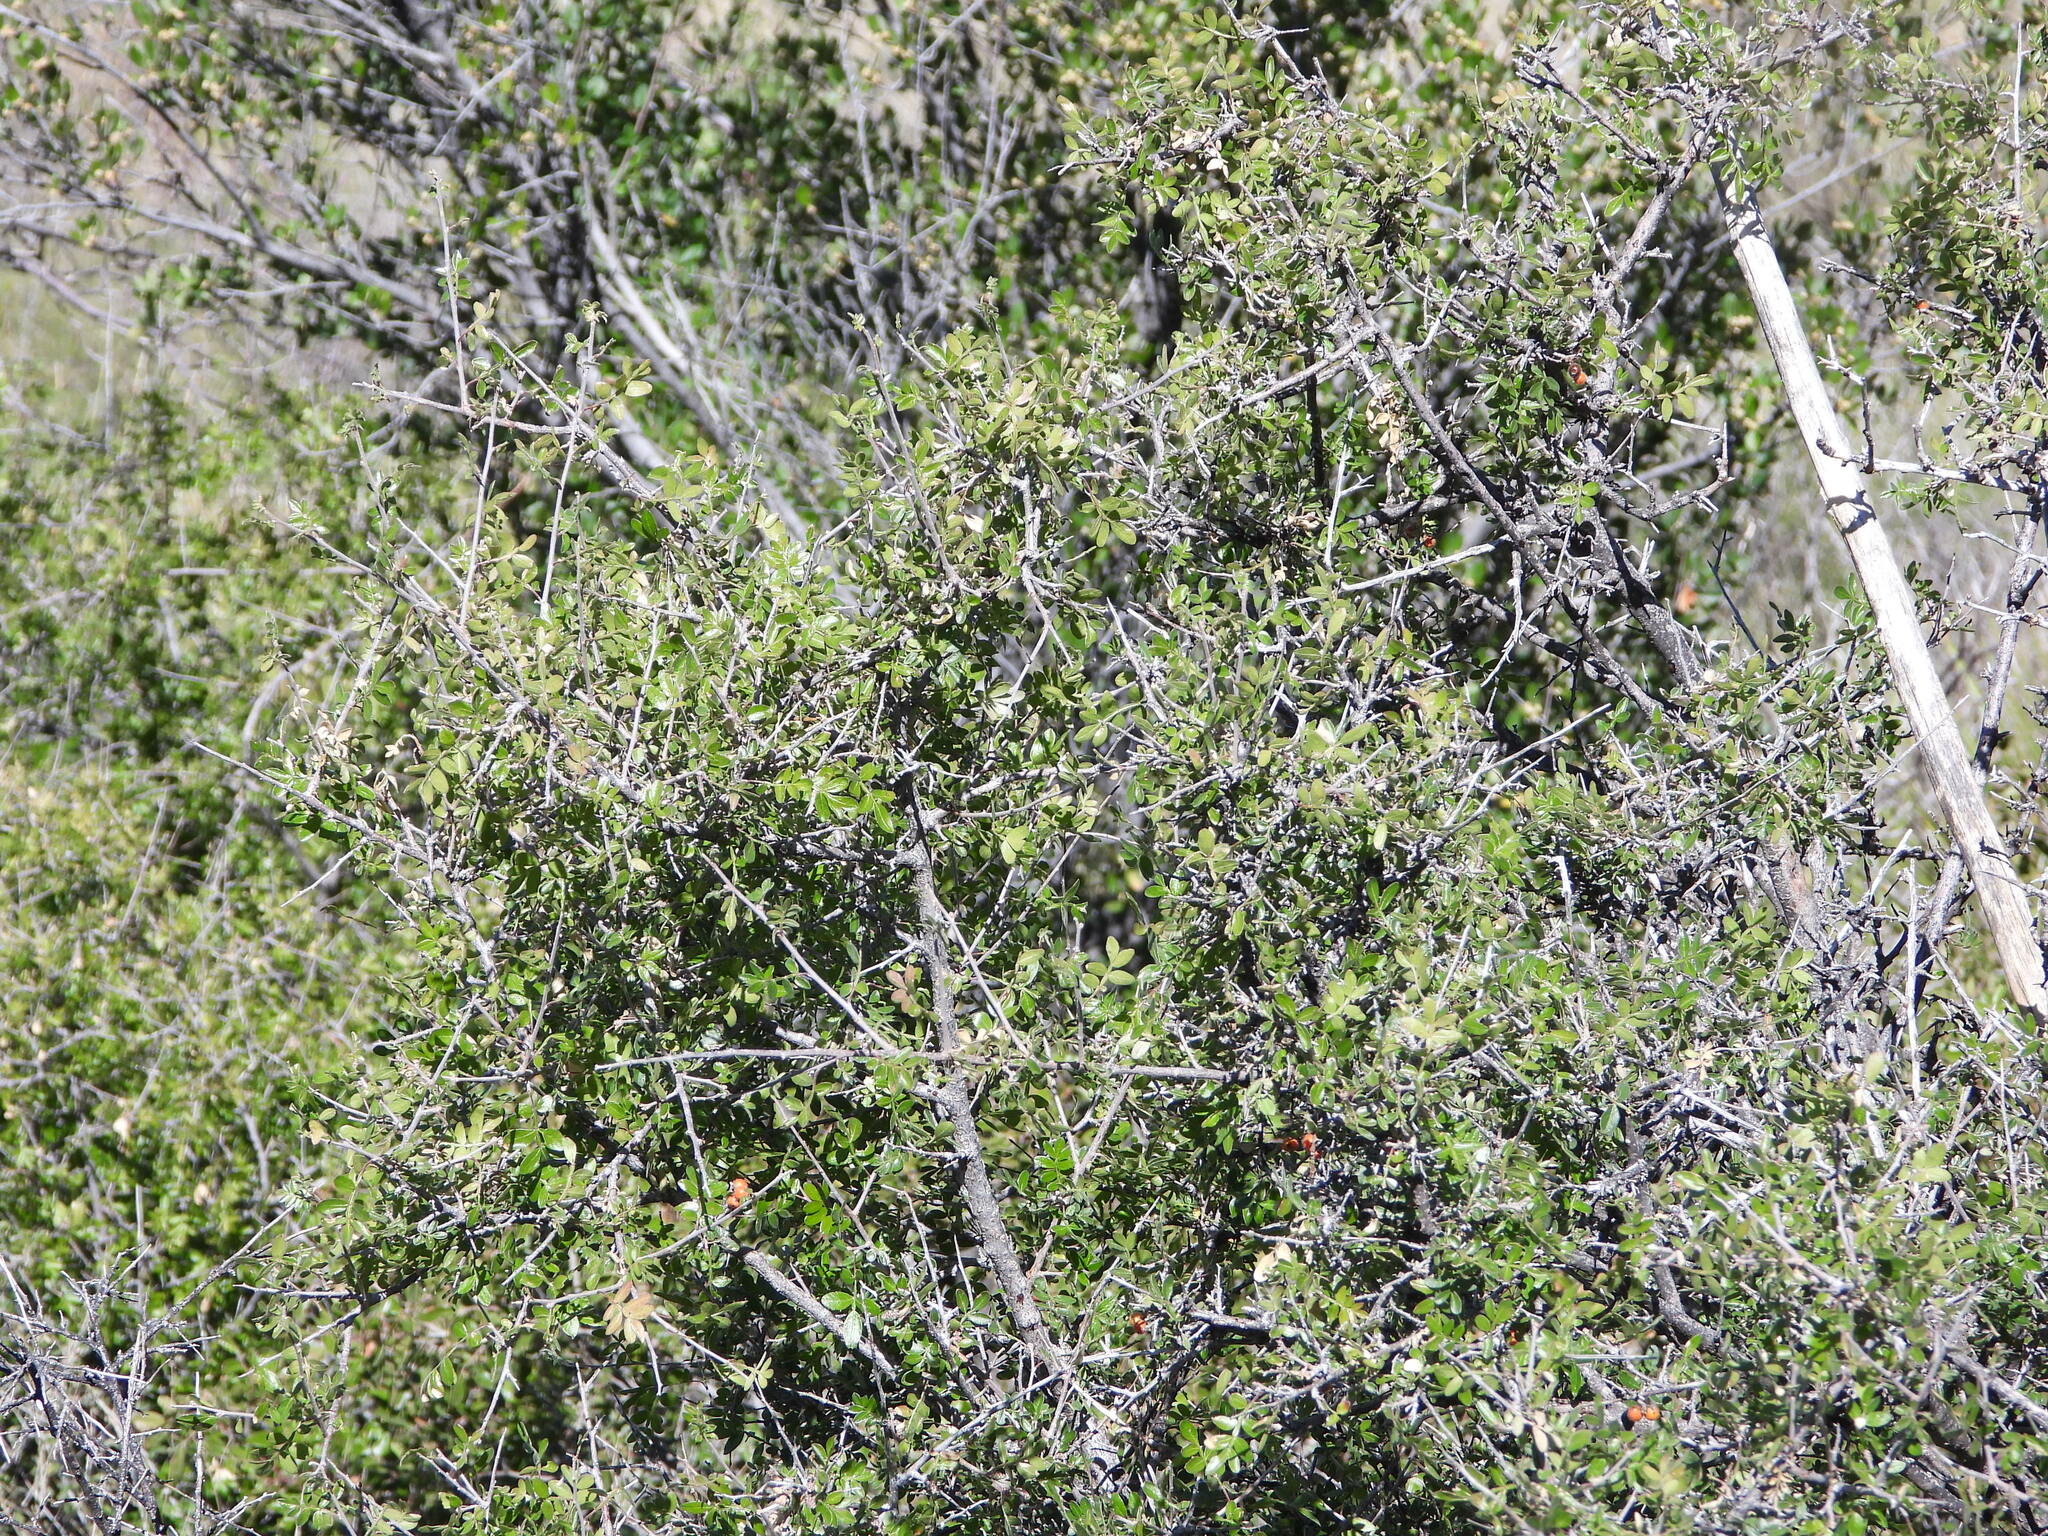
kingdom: Plantae
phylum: Tracheophyta
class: Magnoliopsida
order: Sapindales
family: Anacardiaceae
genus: Rhus
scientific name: Rhus microphylla
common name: Desert sumac
